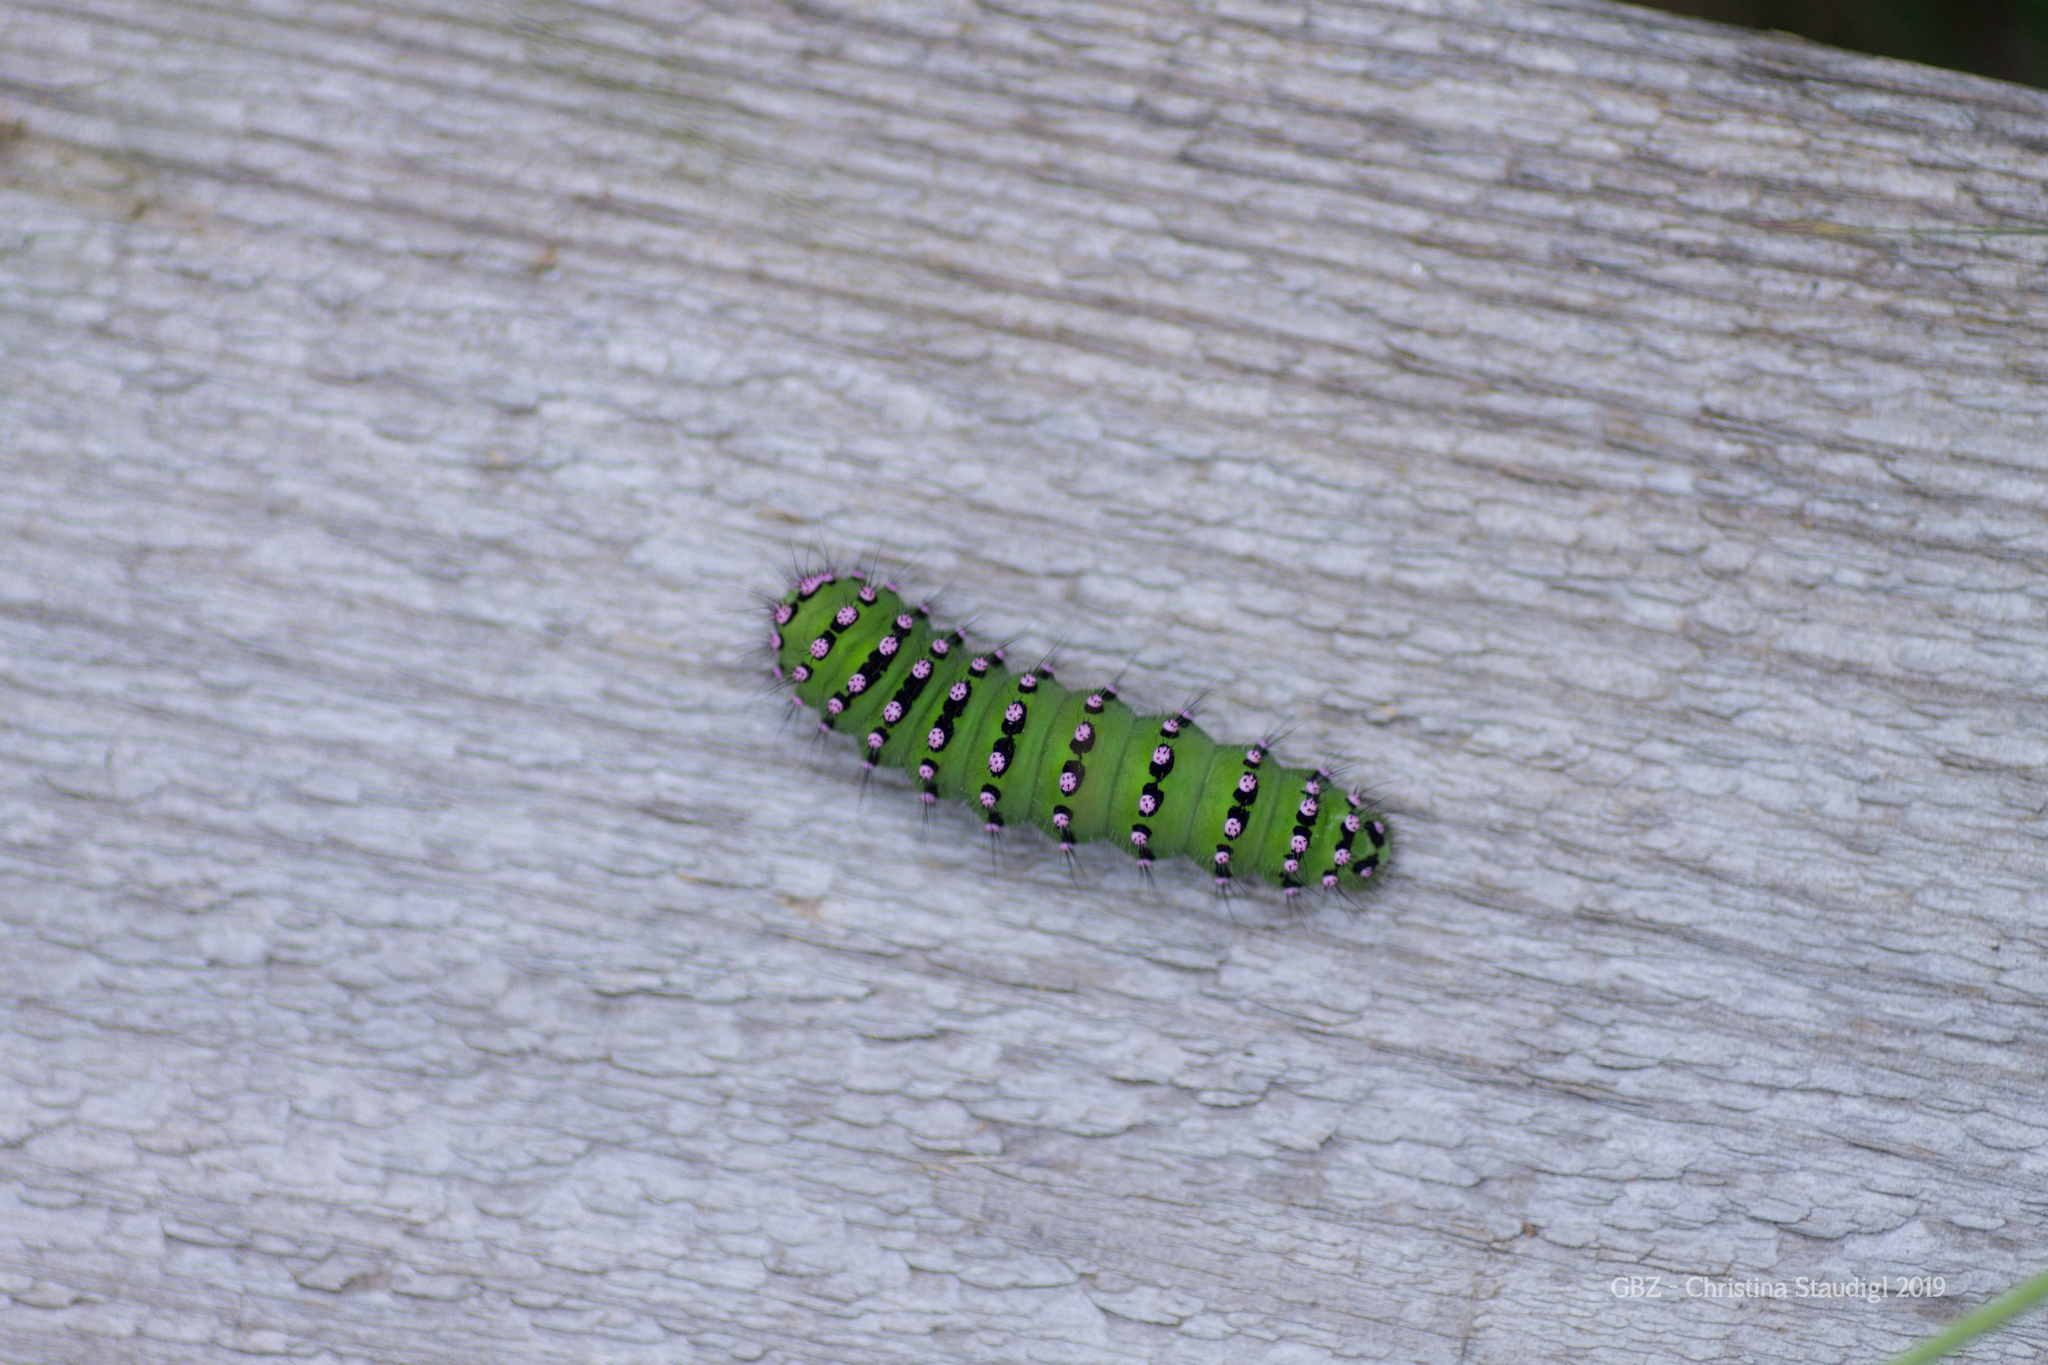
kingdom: Animalia
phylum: Arthropoda
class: Insecta
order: Lepidoptera
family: Saturniidae
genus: Saturnia
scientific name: Saturnia pavonia
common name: Emperor moth
